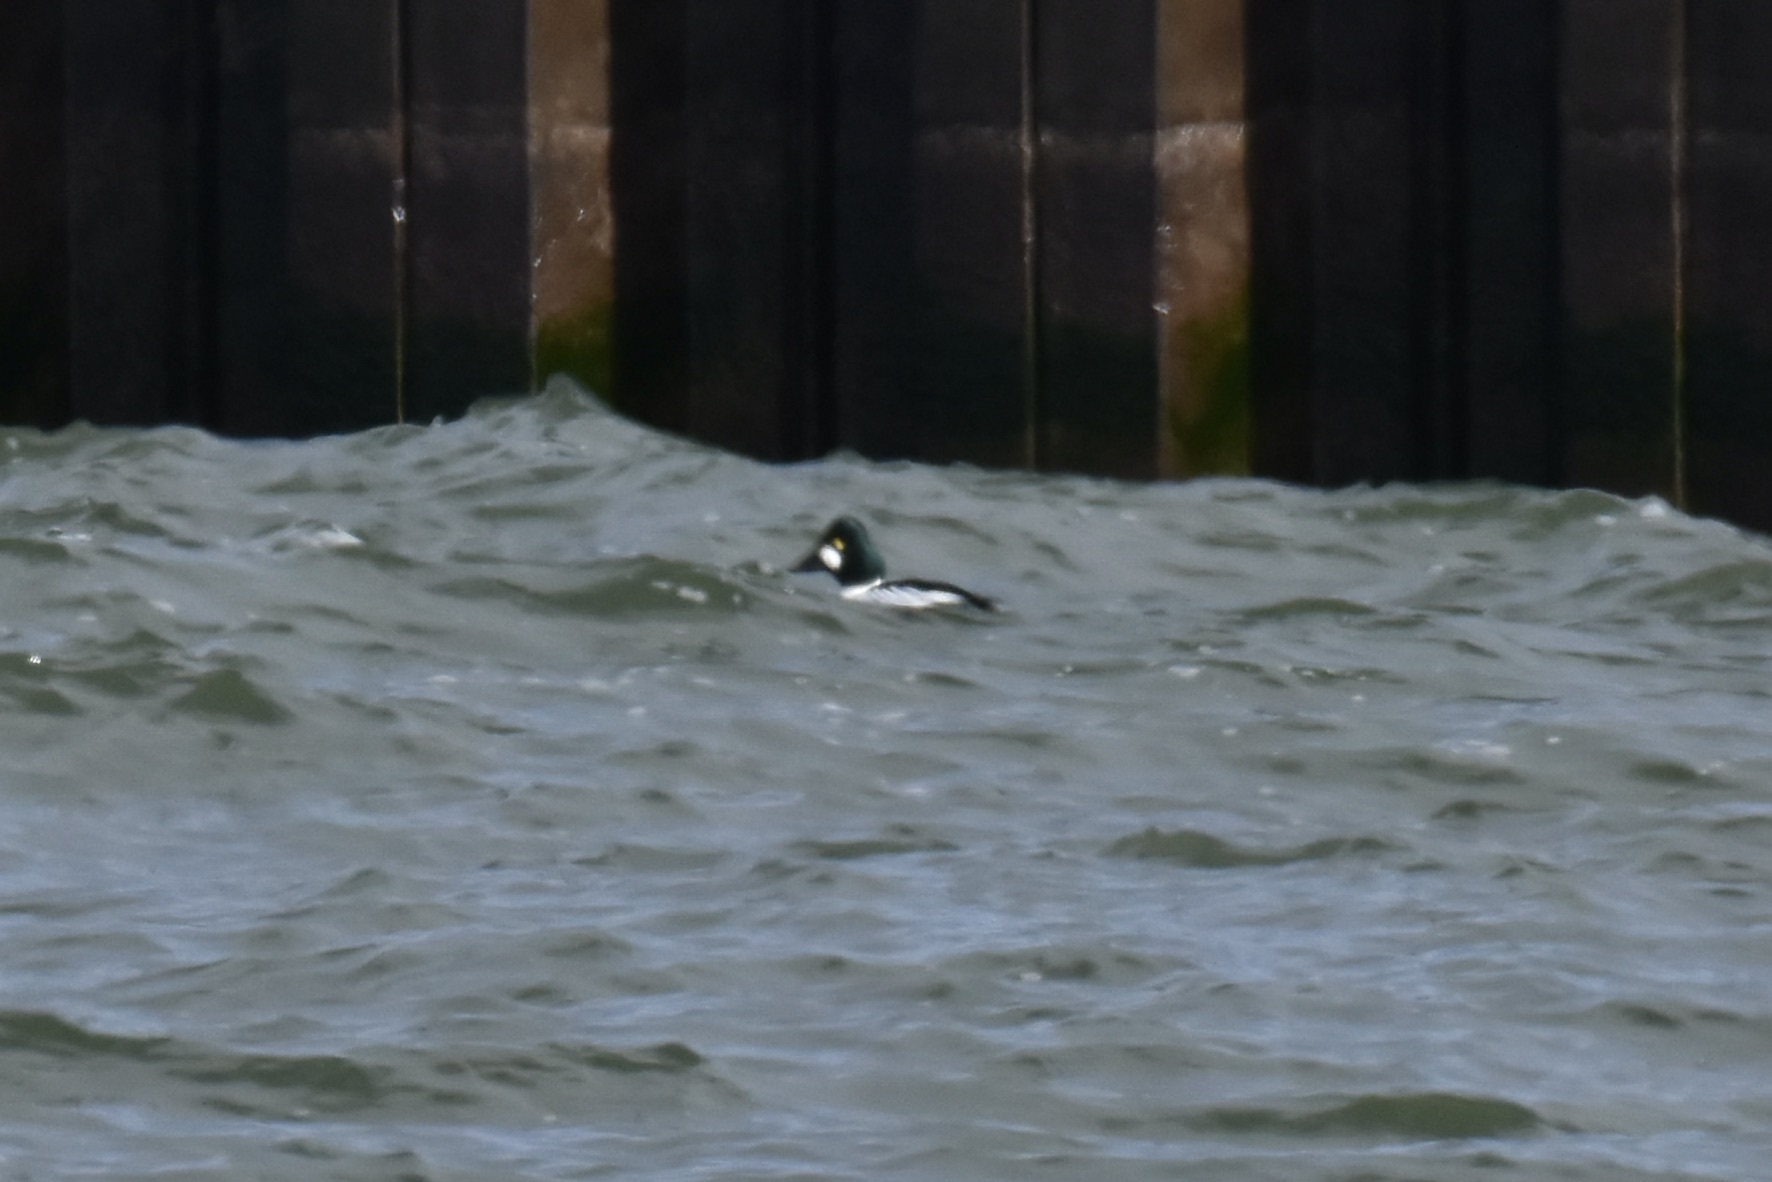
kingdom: Animalia
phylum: Chordata
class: Aves
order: Anseriformes
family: Anatidae
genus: Bucephala
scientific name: Bucephala clangula
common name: Common goldeneye
